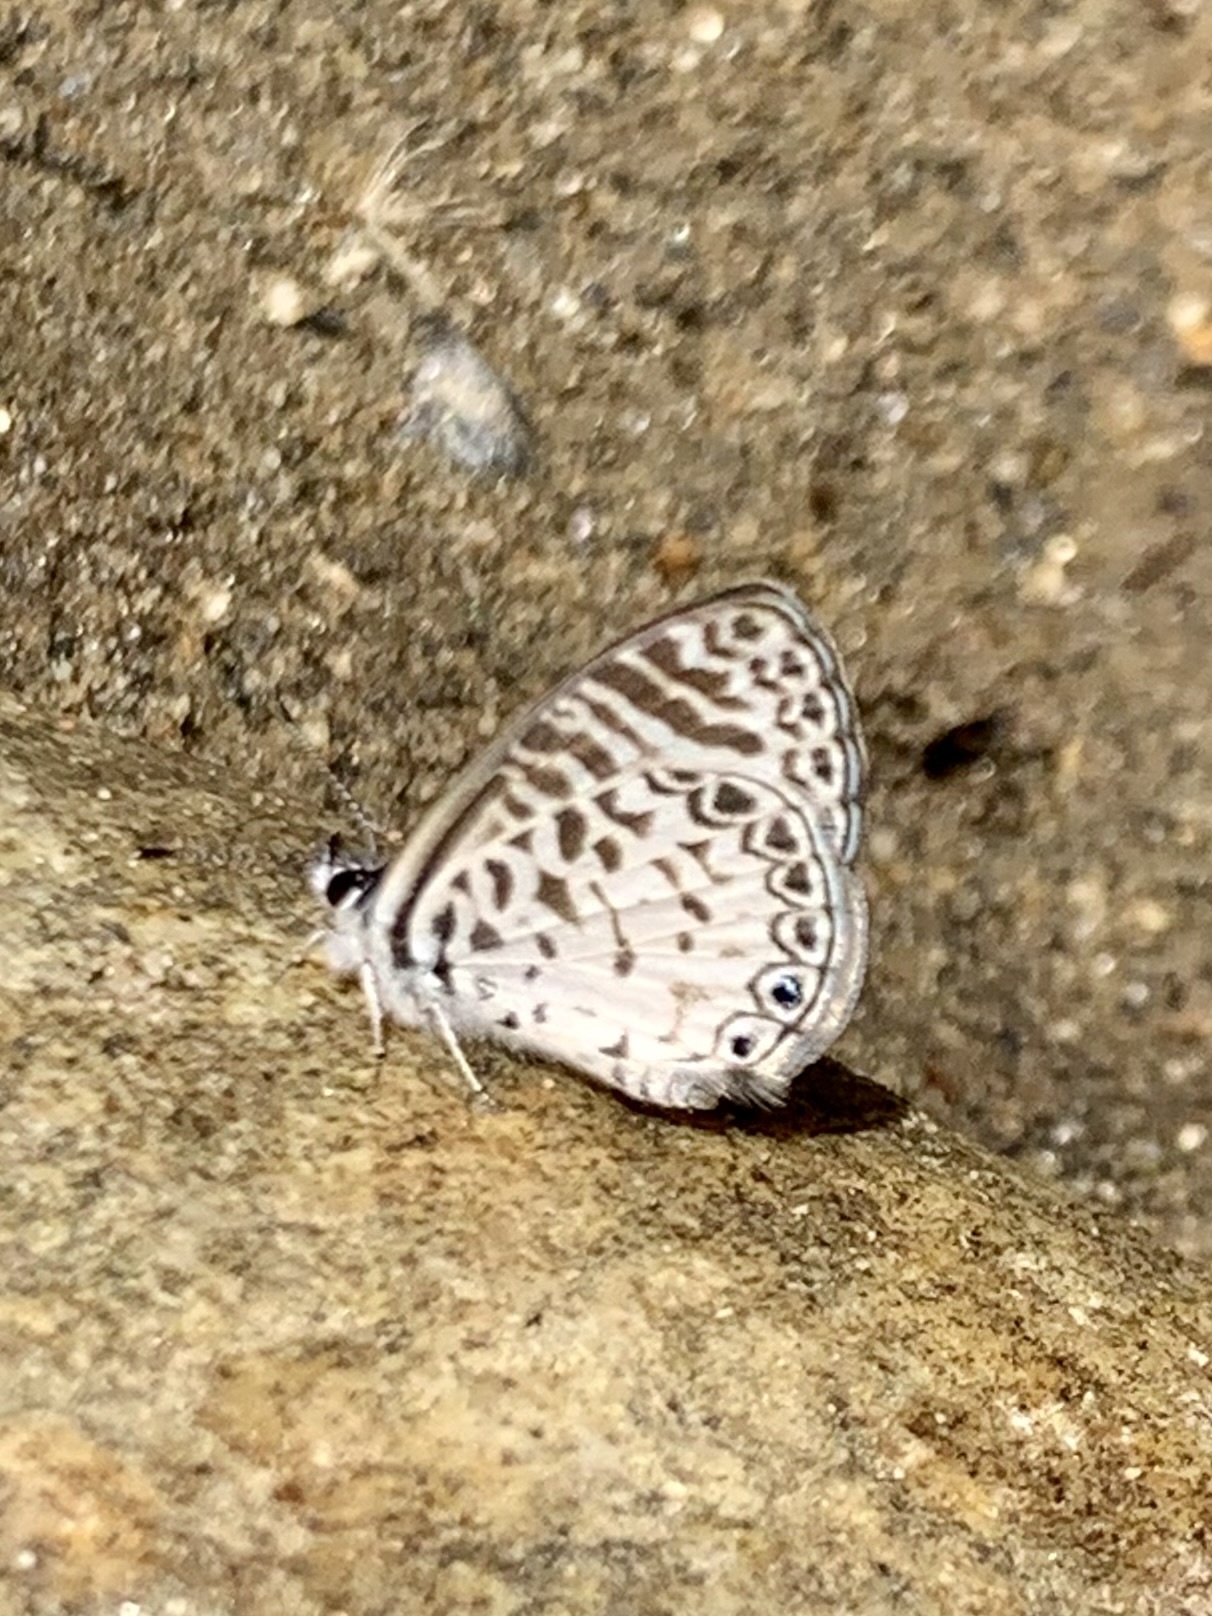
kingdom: Animalia
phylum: Arthropoda
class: Insecta
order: Lepidoptera
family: Lycaenidae
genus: Leptotes
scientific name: Leptotes cassius
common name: Cassius blue
